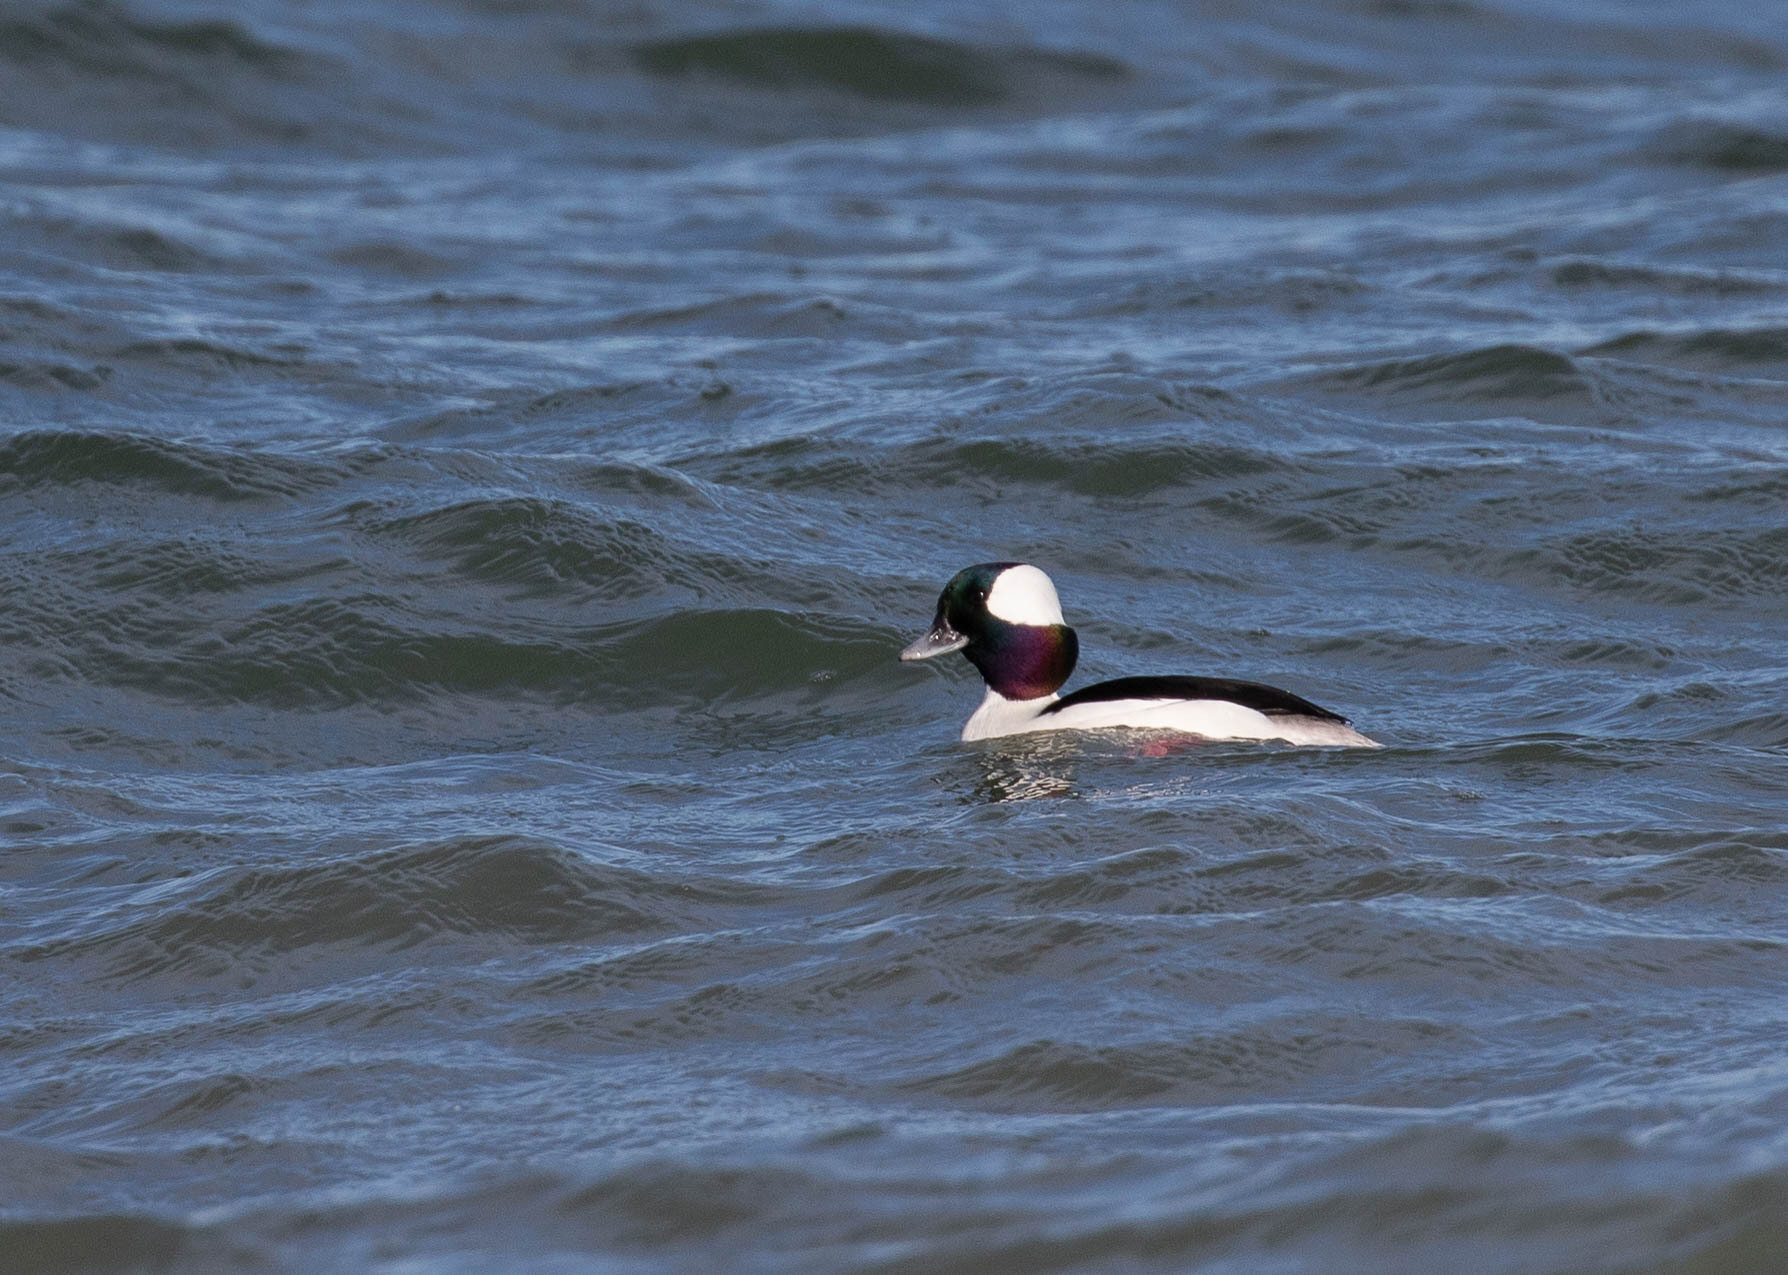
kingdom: Animalia
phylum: Chordata
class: Aves
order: Anseriformes
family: Anatidae
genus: Bucephala
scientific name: Bucephala albeola
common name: Bufflehead
